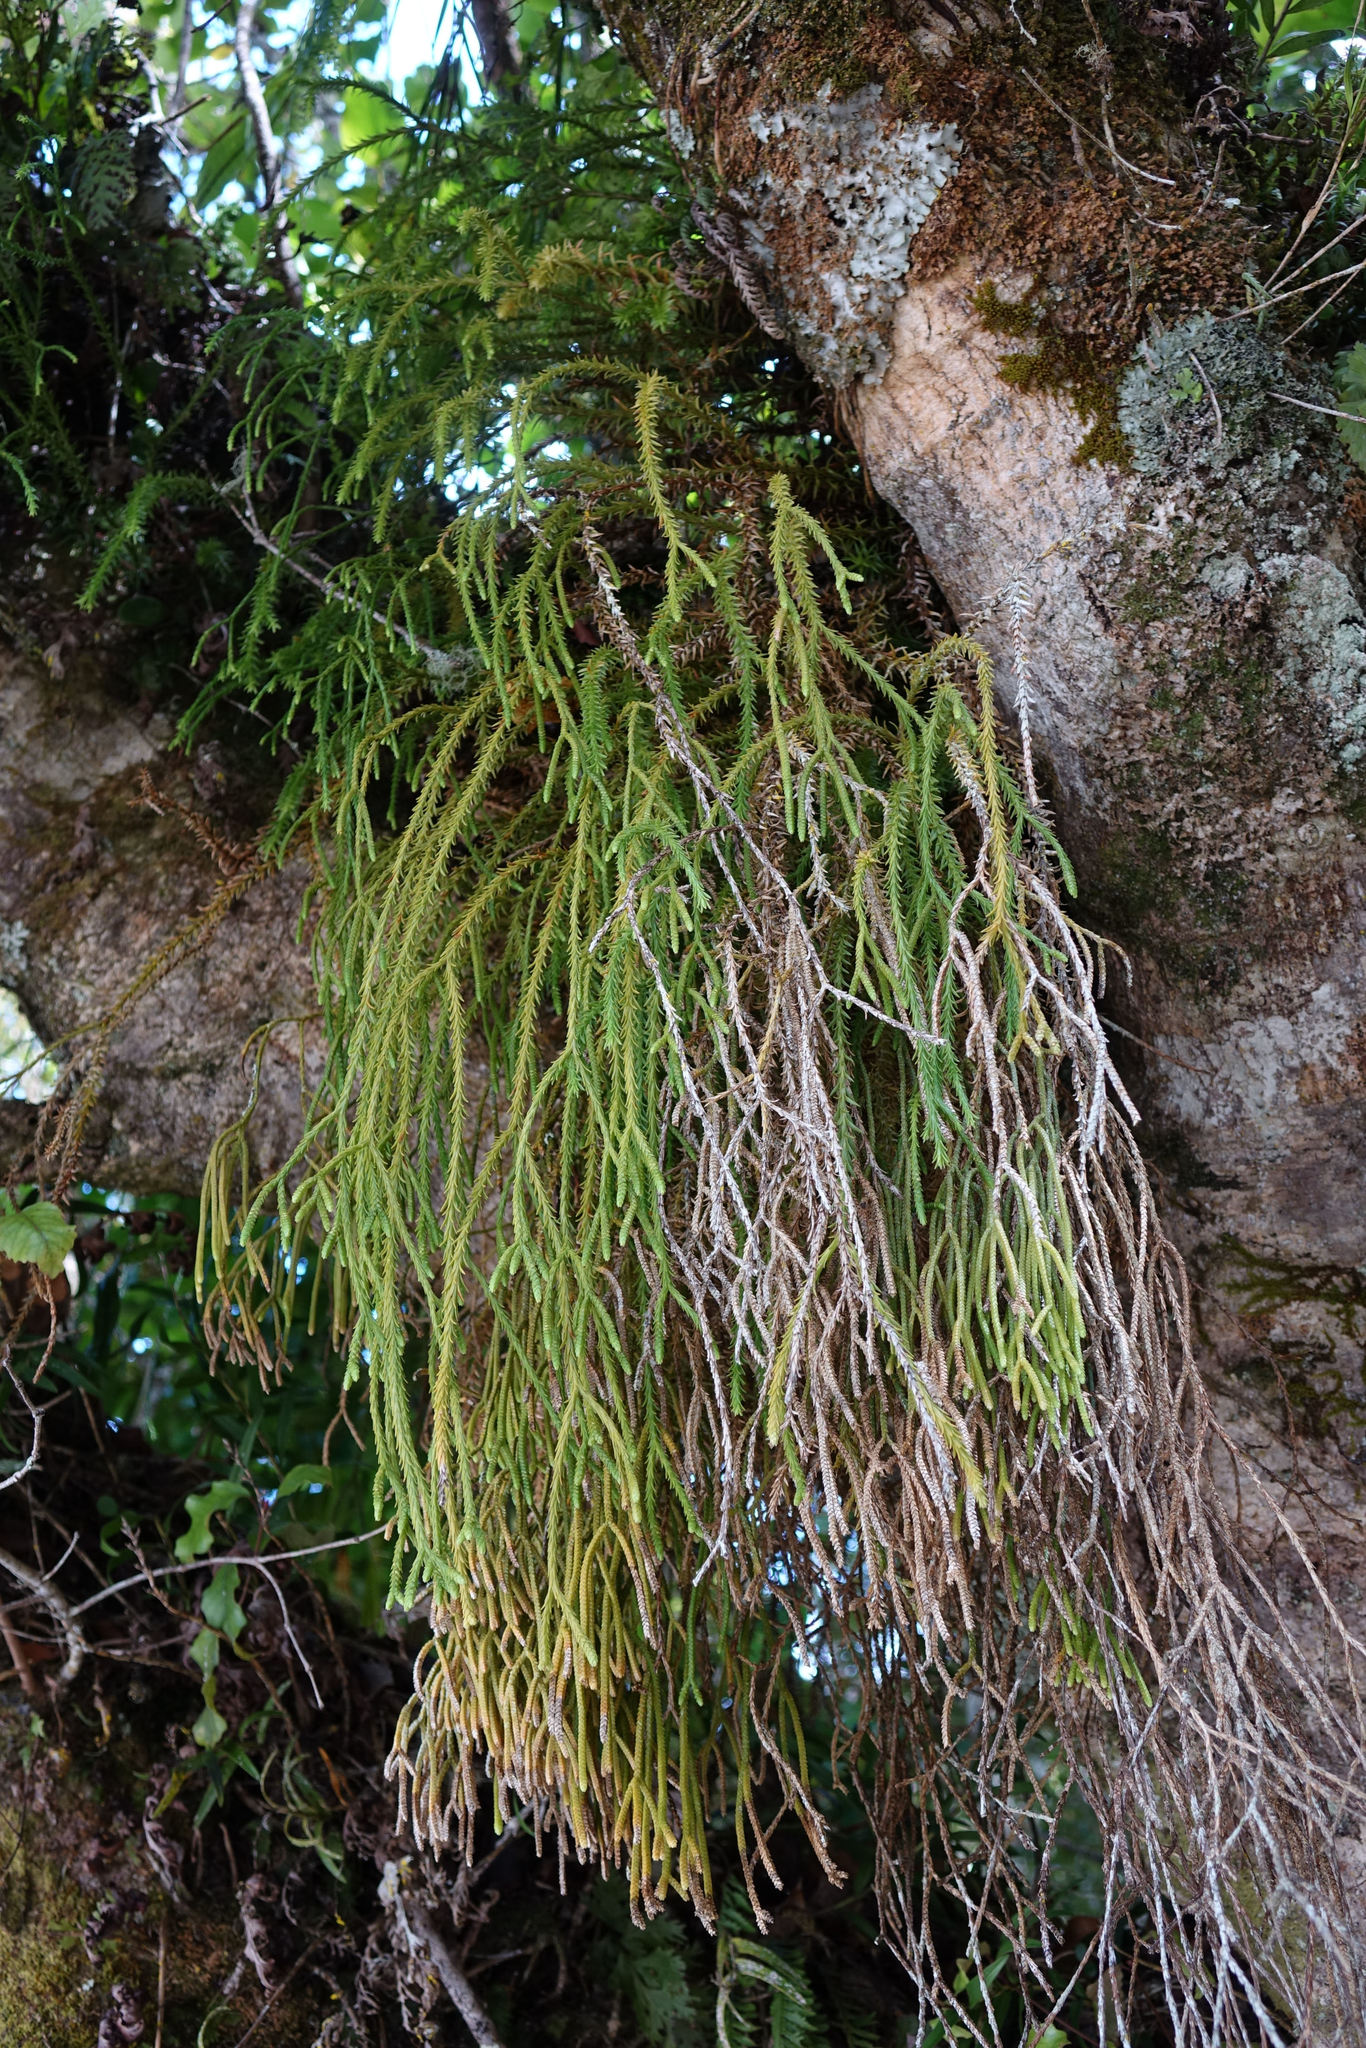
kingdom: Plantae
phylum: Tracheophyta
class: Lycopodiopsida
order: Lycopodiales
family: Lycopodiaceae
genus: Phlegmariurus
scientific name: Phlegmariurus varius
